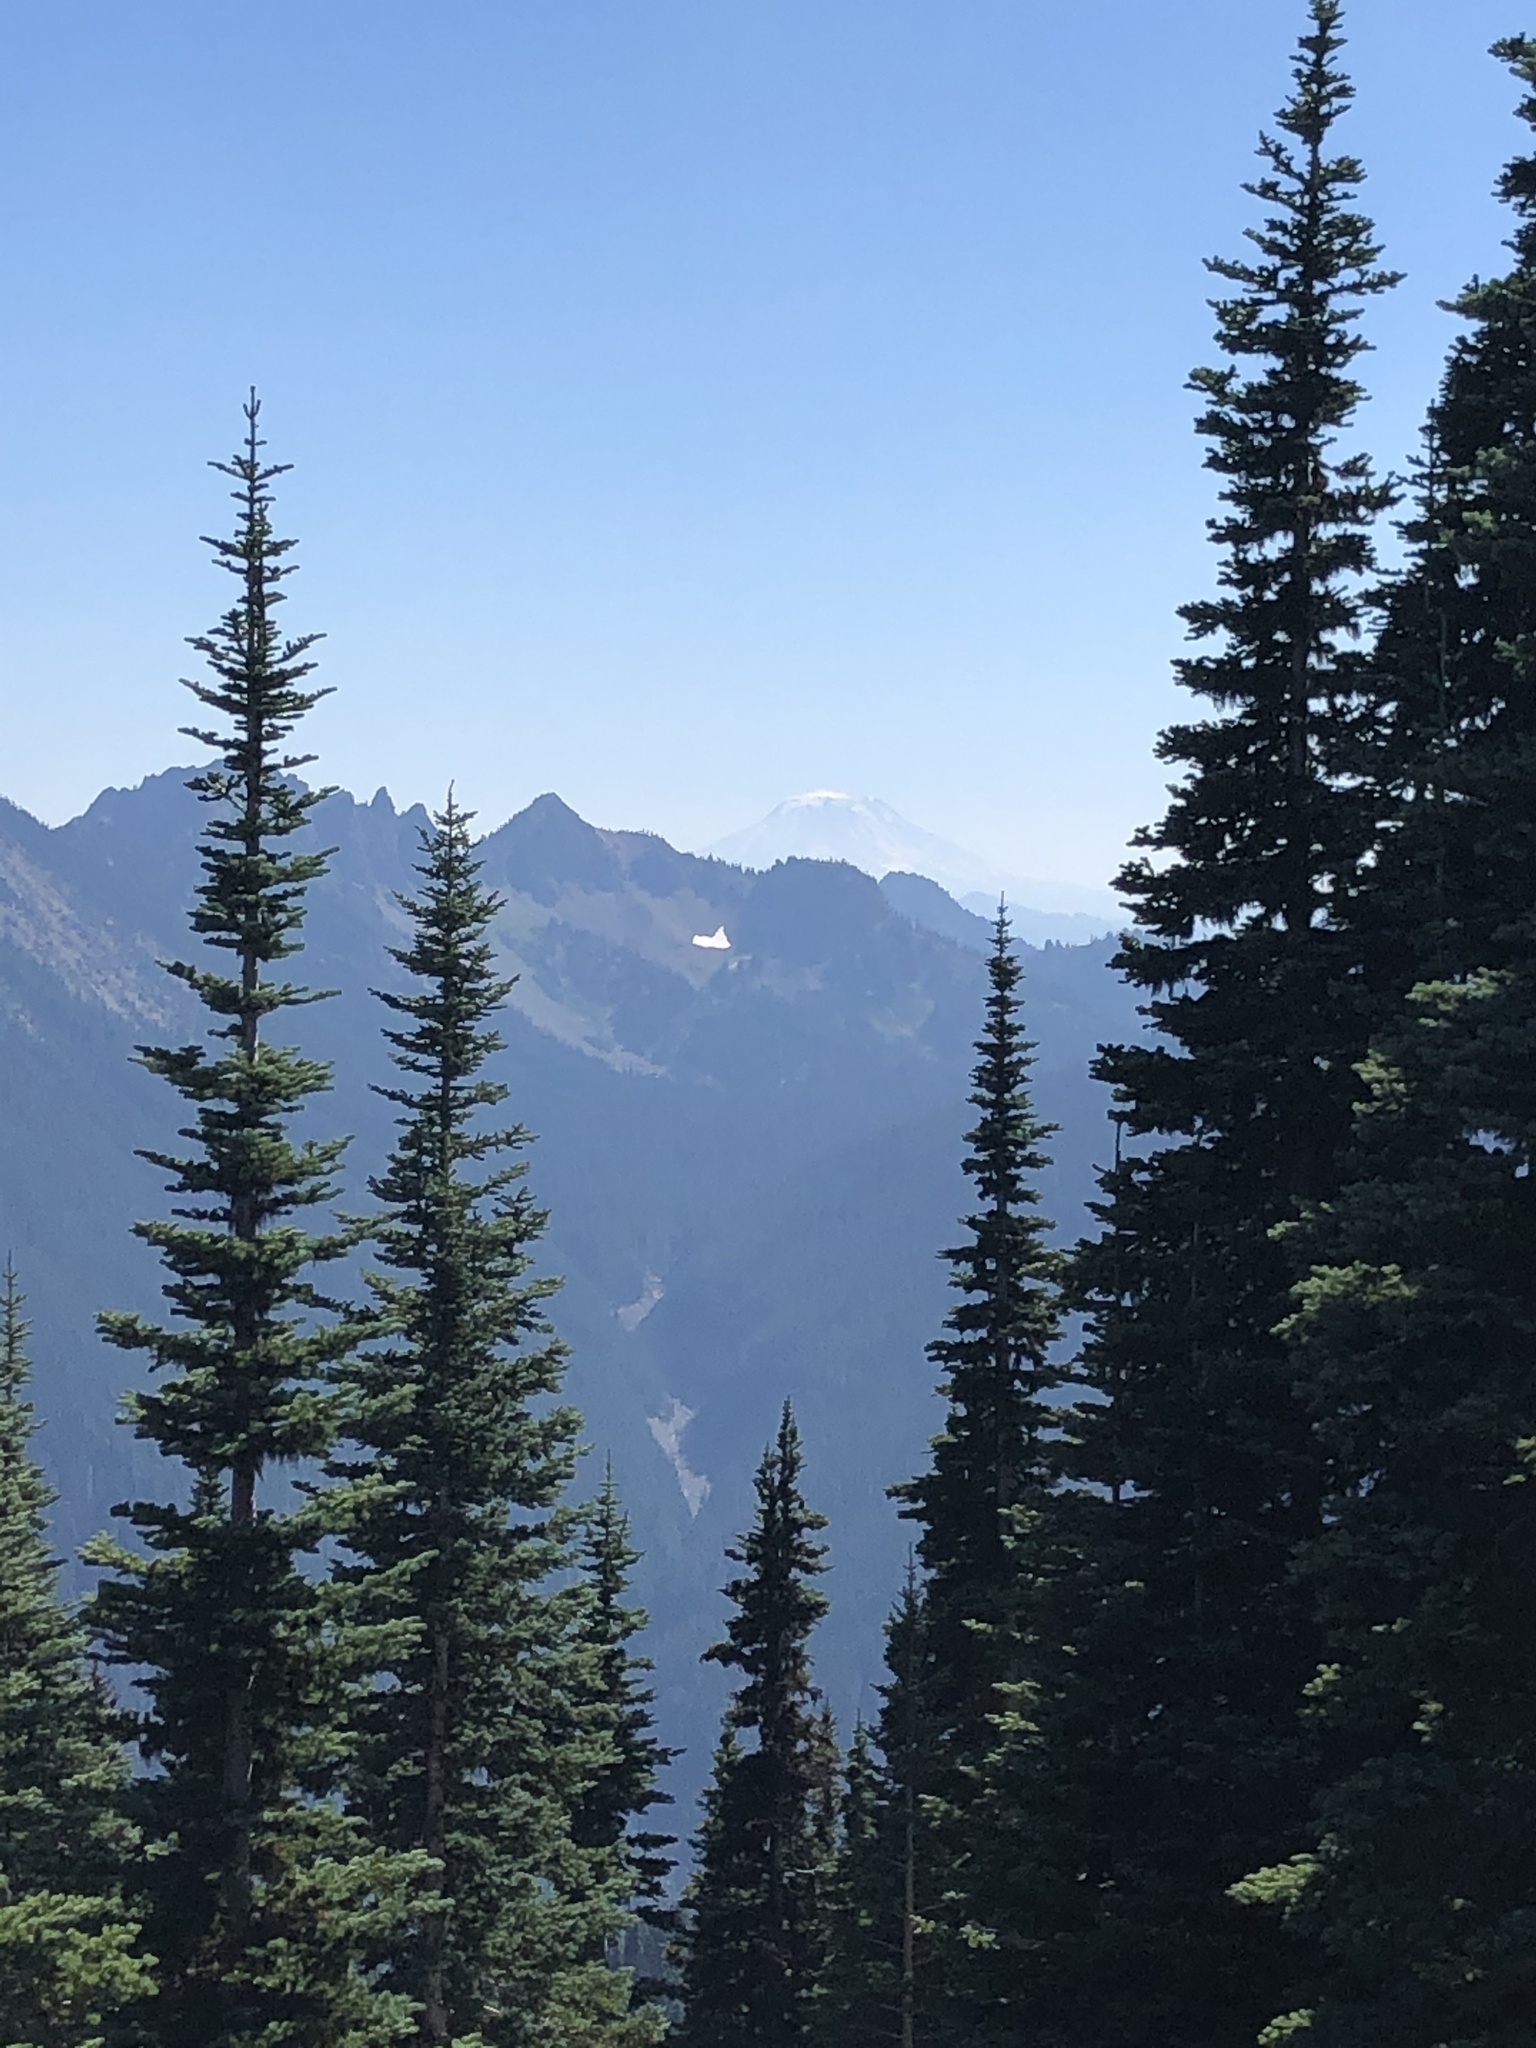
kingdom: Plantae
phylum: Tracheophyta
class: Pinopsida
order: Pinales
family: Pinaceae
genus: Abies
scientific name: Abies lasiocarpa
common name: Subalpine fir
